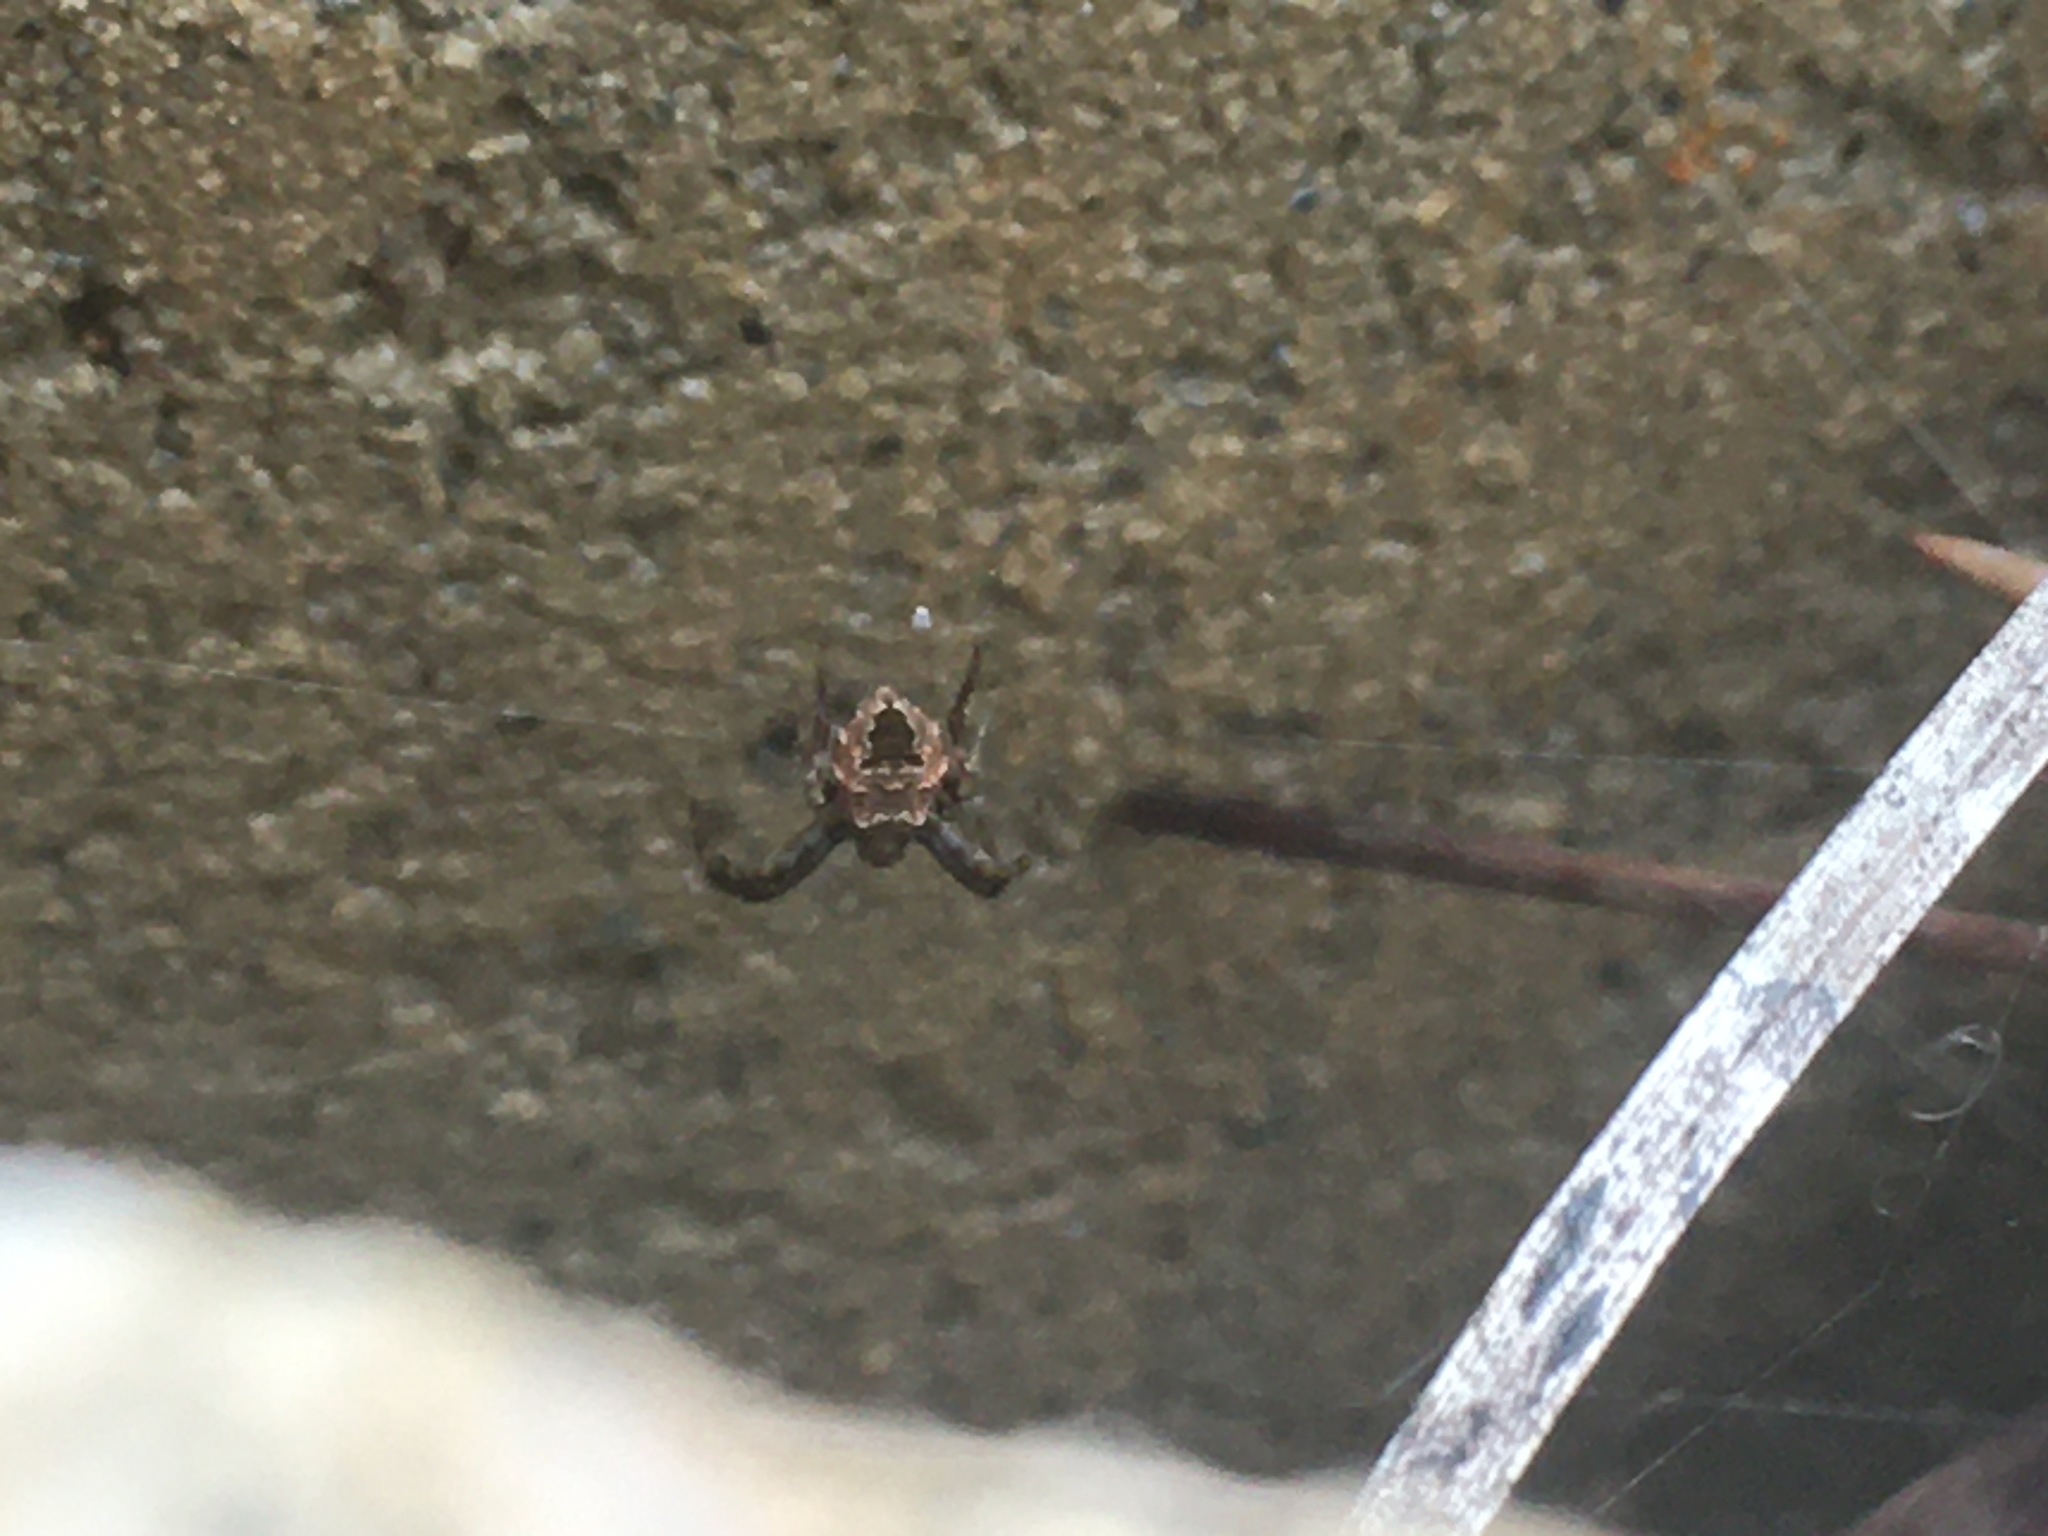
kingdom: Animalia
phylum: Arthropoda
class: Arachnida
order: Araneae
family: Araneidae
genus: Gea
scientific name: Gea heptagon
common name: Orb weavers
